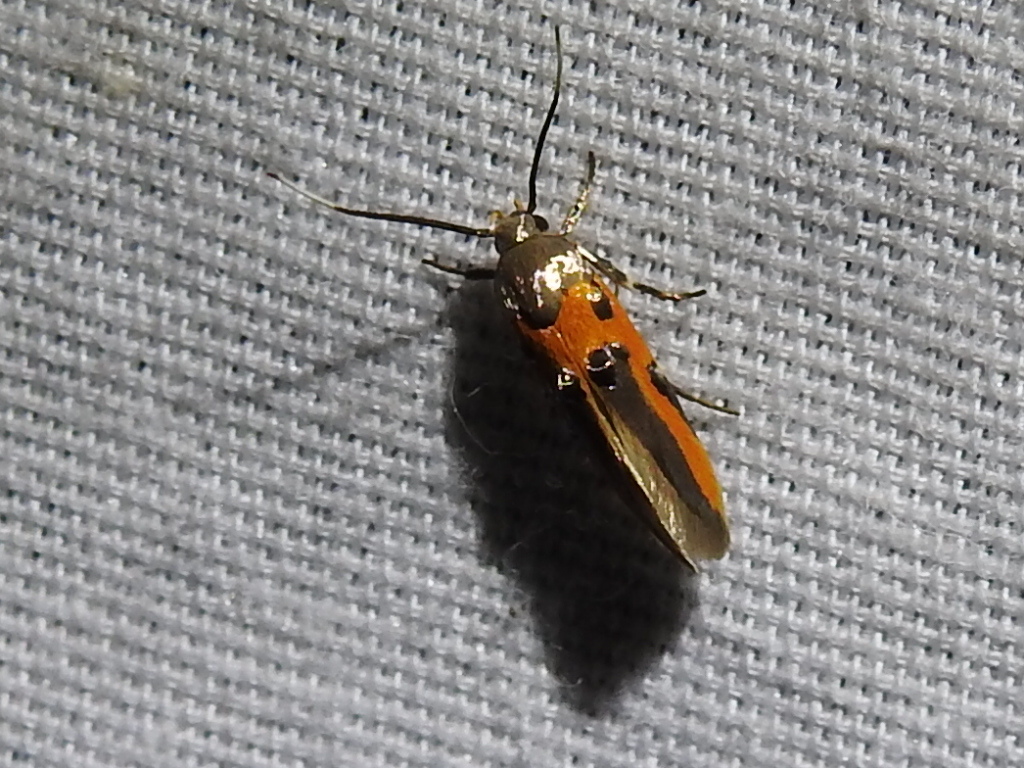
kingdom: Animalia
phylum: Arthropoda
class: Insecta
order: Lepidoptera
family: Cosmopterigidae
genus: Euclemensia
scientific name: Euclemensia bassettella
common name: Kermes scale moth
